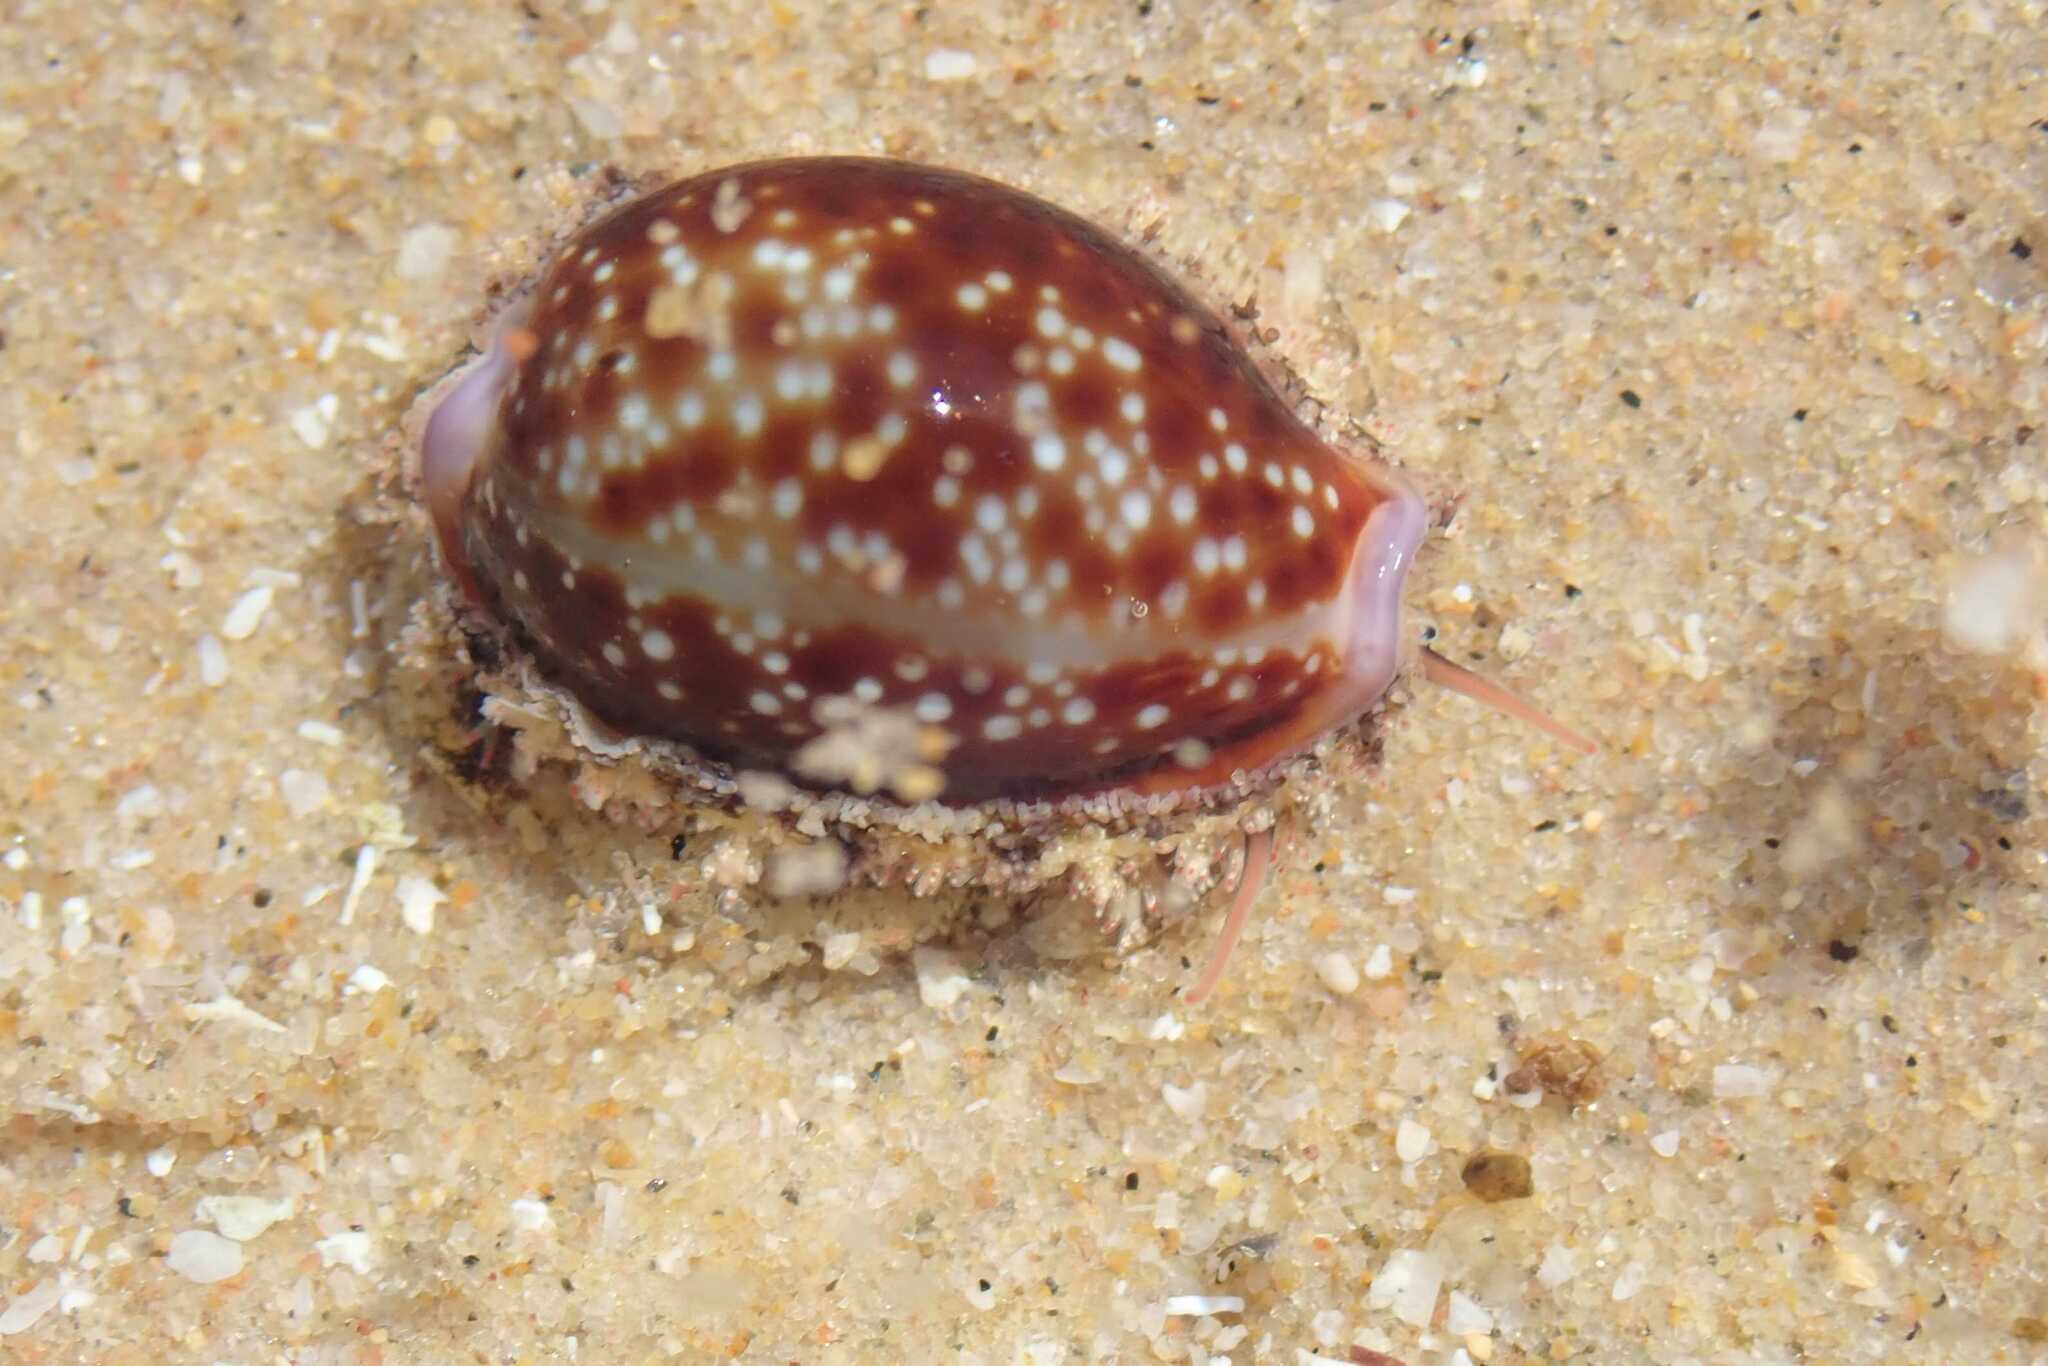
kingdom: Animalia
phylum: Mollusca
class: Gastropoda
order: Littorinimorpha
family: Cypraeidae
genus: Naria
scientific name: Naria helvola
